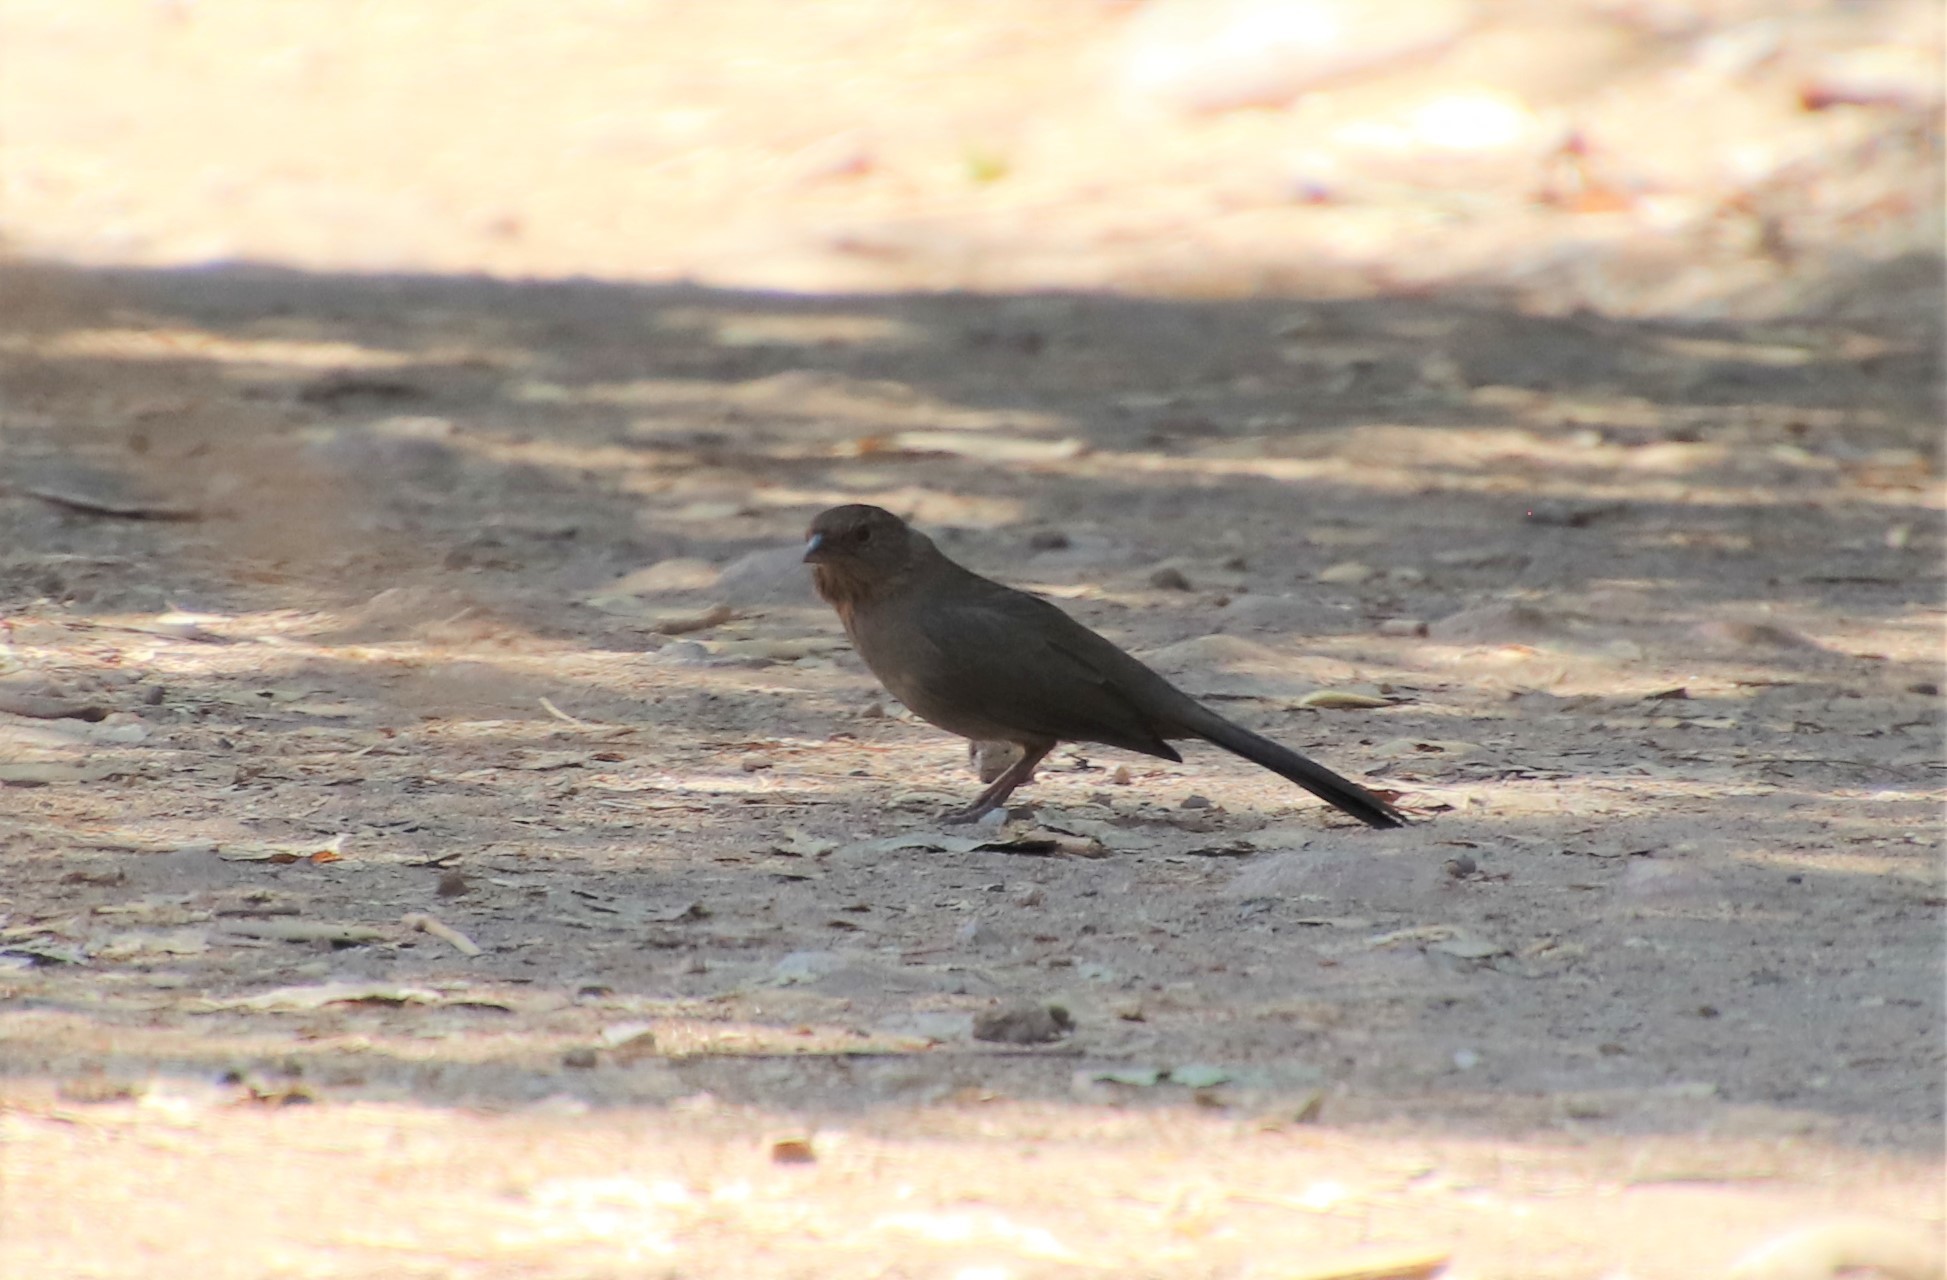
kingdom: Animalia
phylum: Chordata
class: Aves
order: Passeriformes
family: Passerellidae
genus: Melozone
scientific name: Melozone crissalis
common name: California towhee
